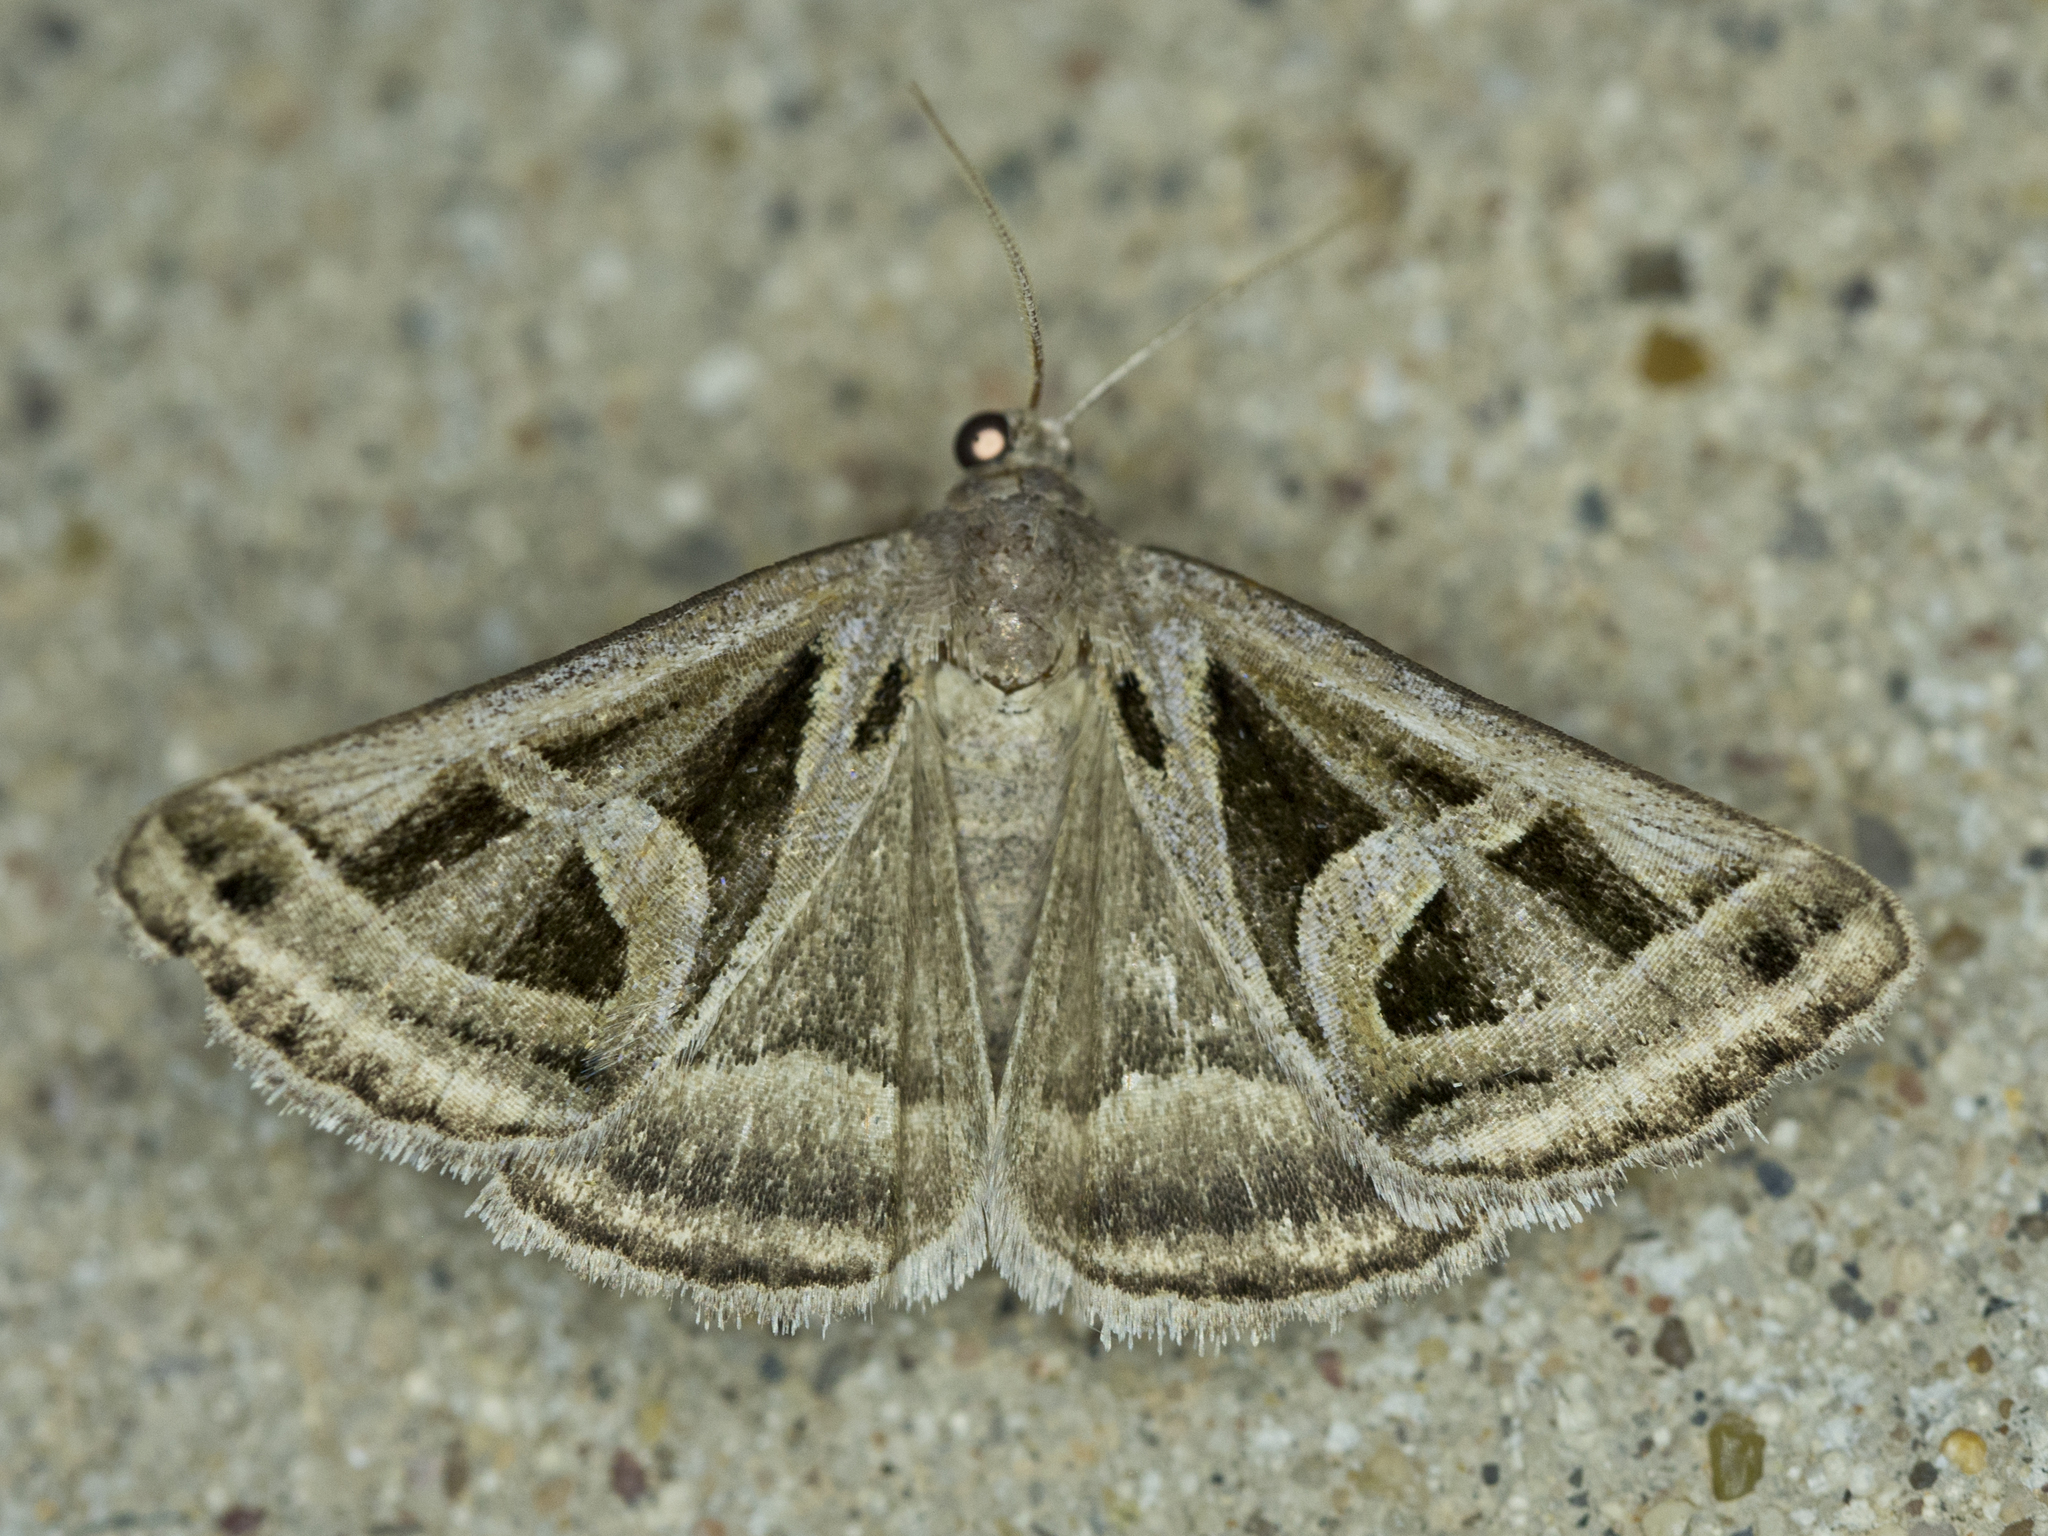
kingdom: Animalia
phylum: Arthropoda
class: Insecta
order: Lepidoptera
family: Erebidae
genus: Callistege
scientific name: Callistege intercalaris
